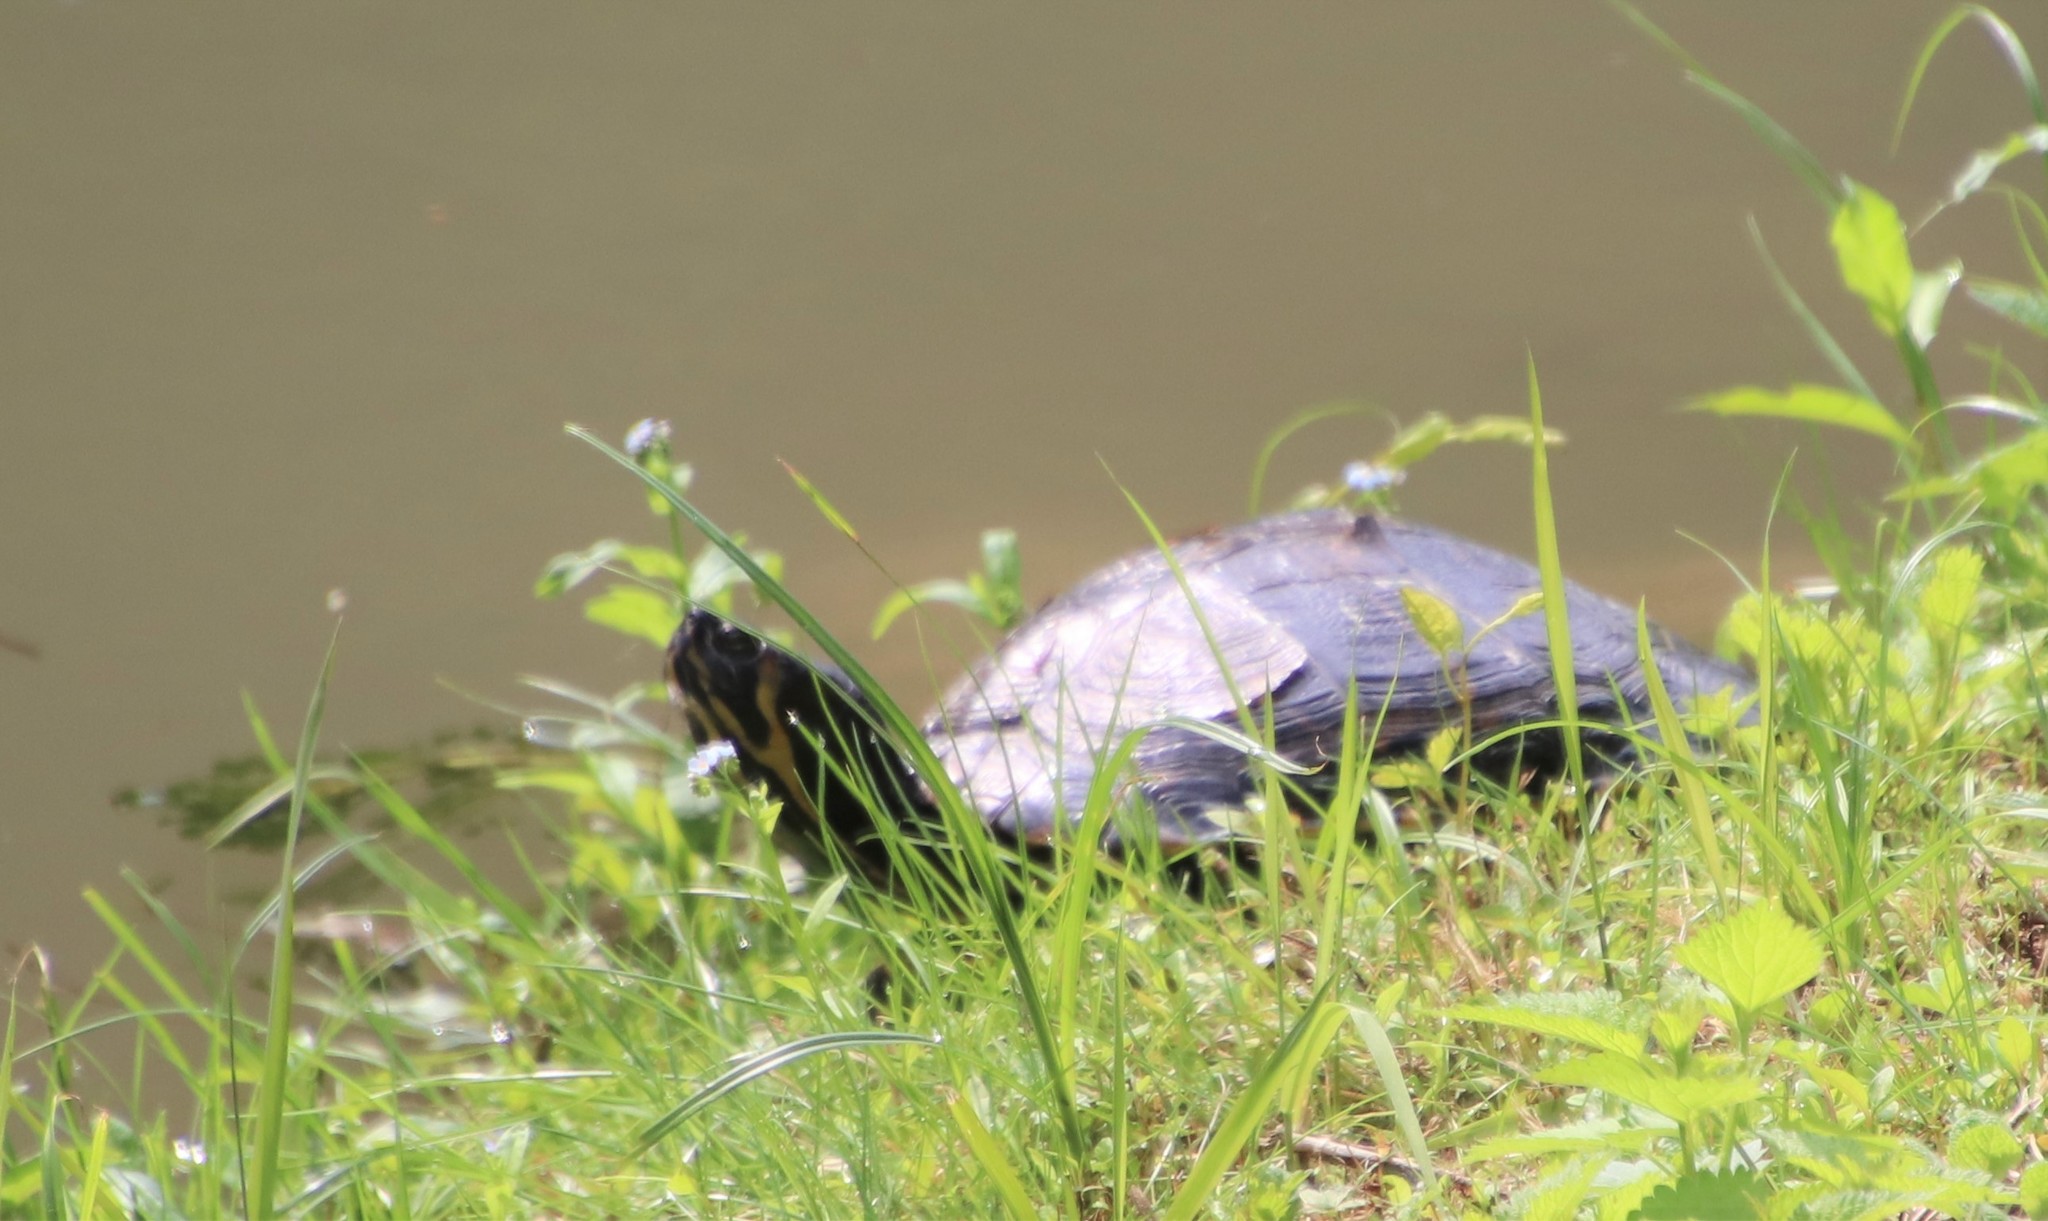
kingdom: Animalia
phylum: Chordata
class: Testudines
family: Emydidae
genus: Trachemys
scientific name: Trachemys scripta
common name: Slider
